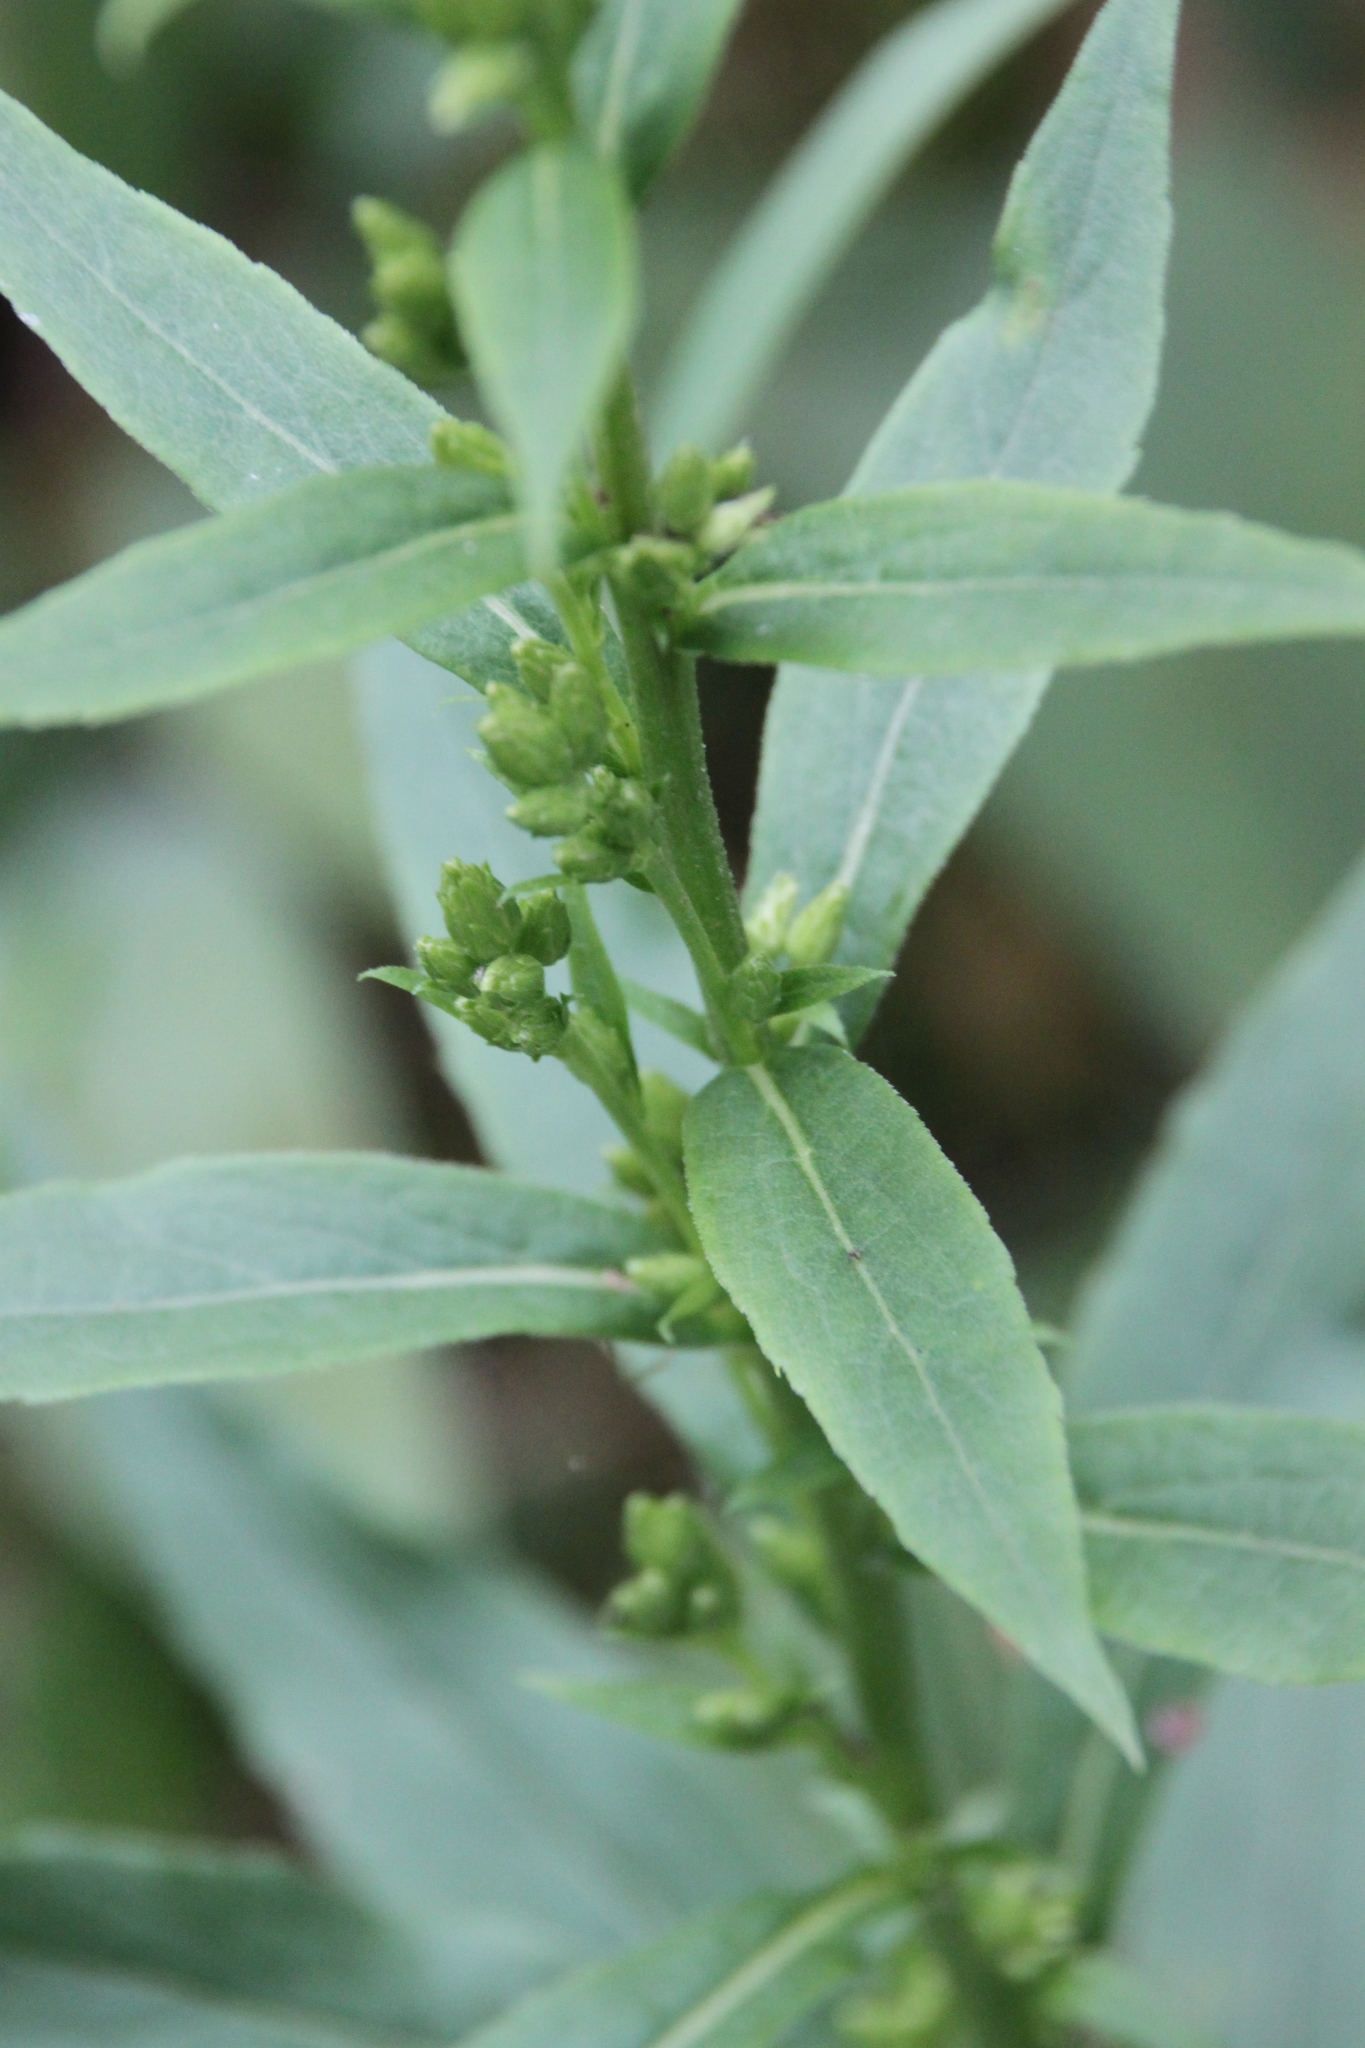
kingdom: Plantae
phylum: Tracheophyta
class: Magnoliopsida
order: Asterales
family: Asteraceae
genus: Solidago
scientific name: Solidago virgaurea
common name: Goldenrod
